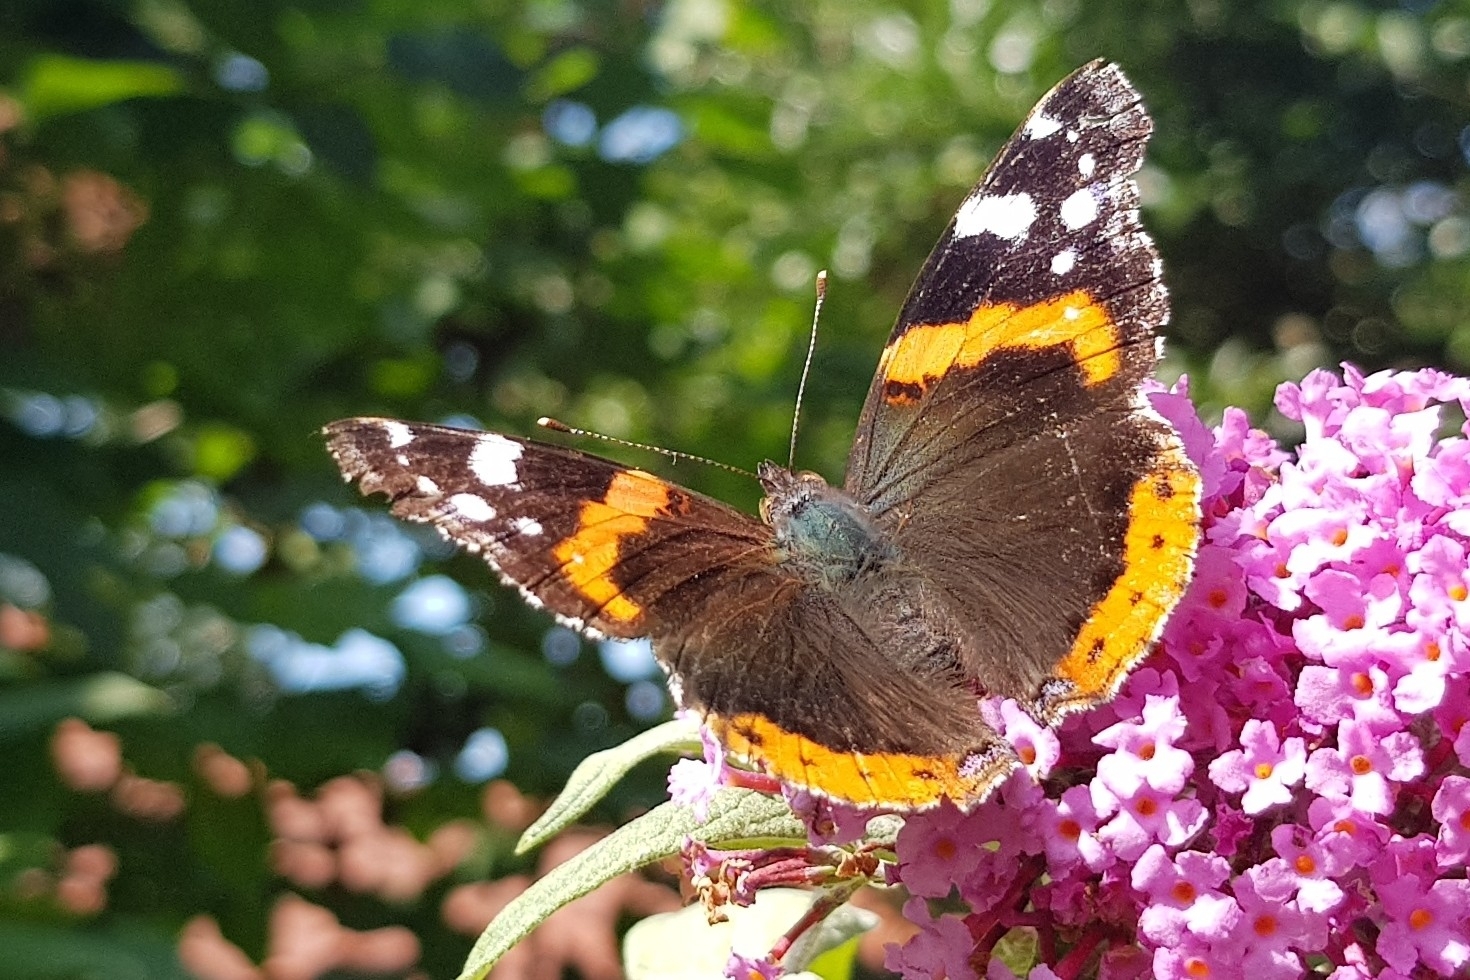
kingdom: Animalia
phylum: Arthropoda
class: Insecta
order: Lepidoptera
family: Nymphalidae
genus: Vanessa
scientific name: Vanessa atalanta
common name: Red admiral
